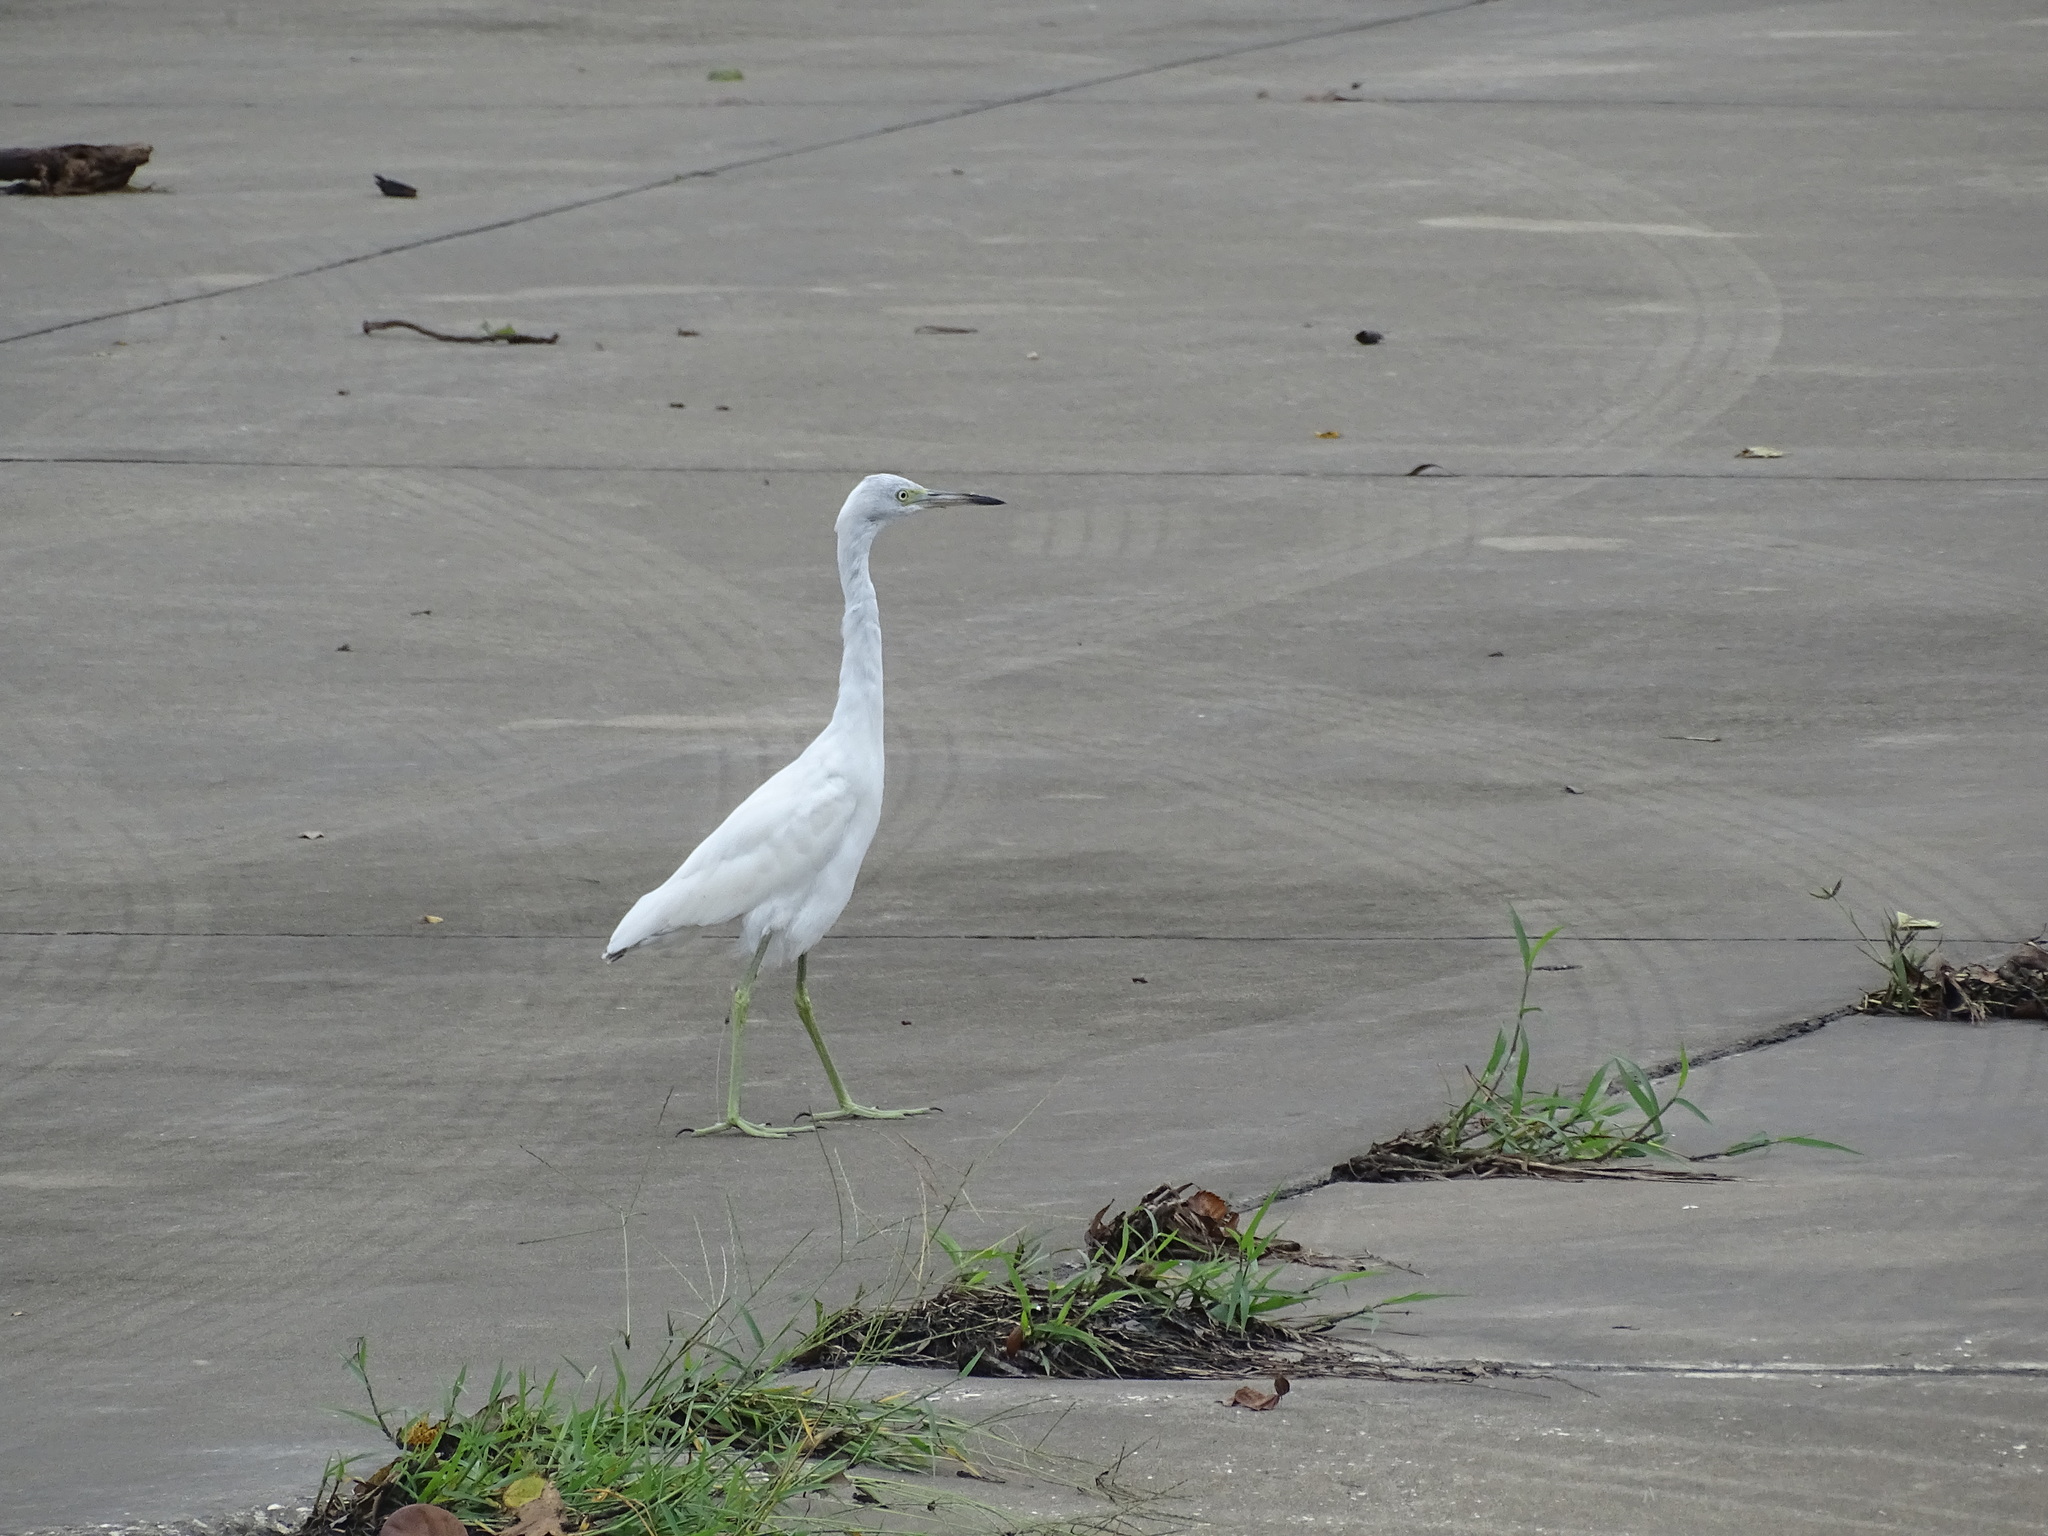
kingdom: Animalia
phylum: Chordata
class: Aves
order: Pelecaniformes
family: Ardeidae
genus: Egretta
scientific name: Egretta caerulea
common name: Little blue heron
